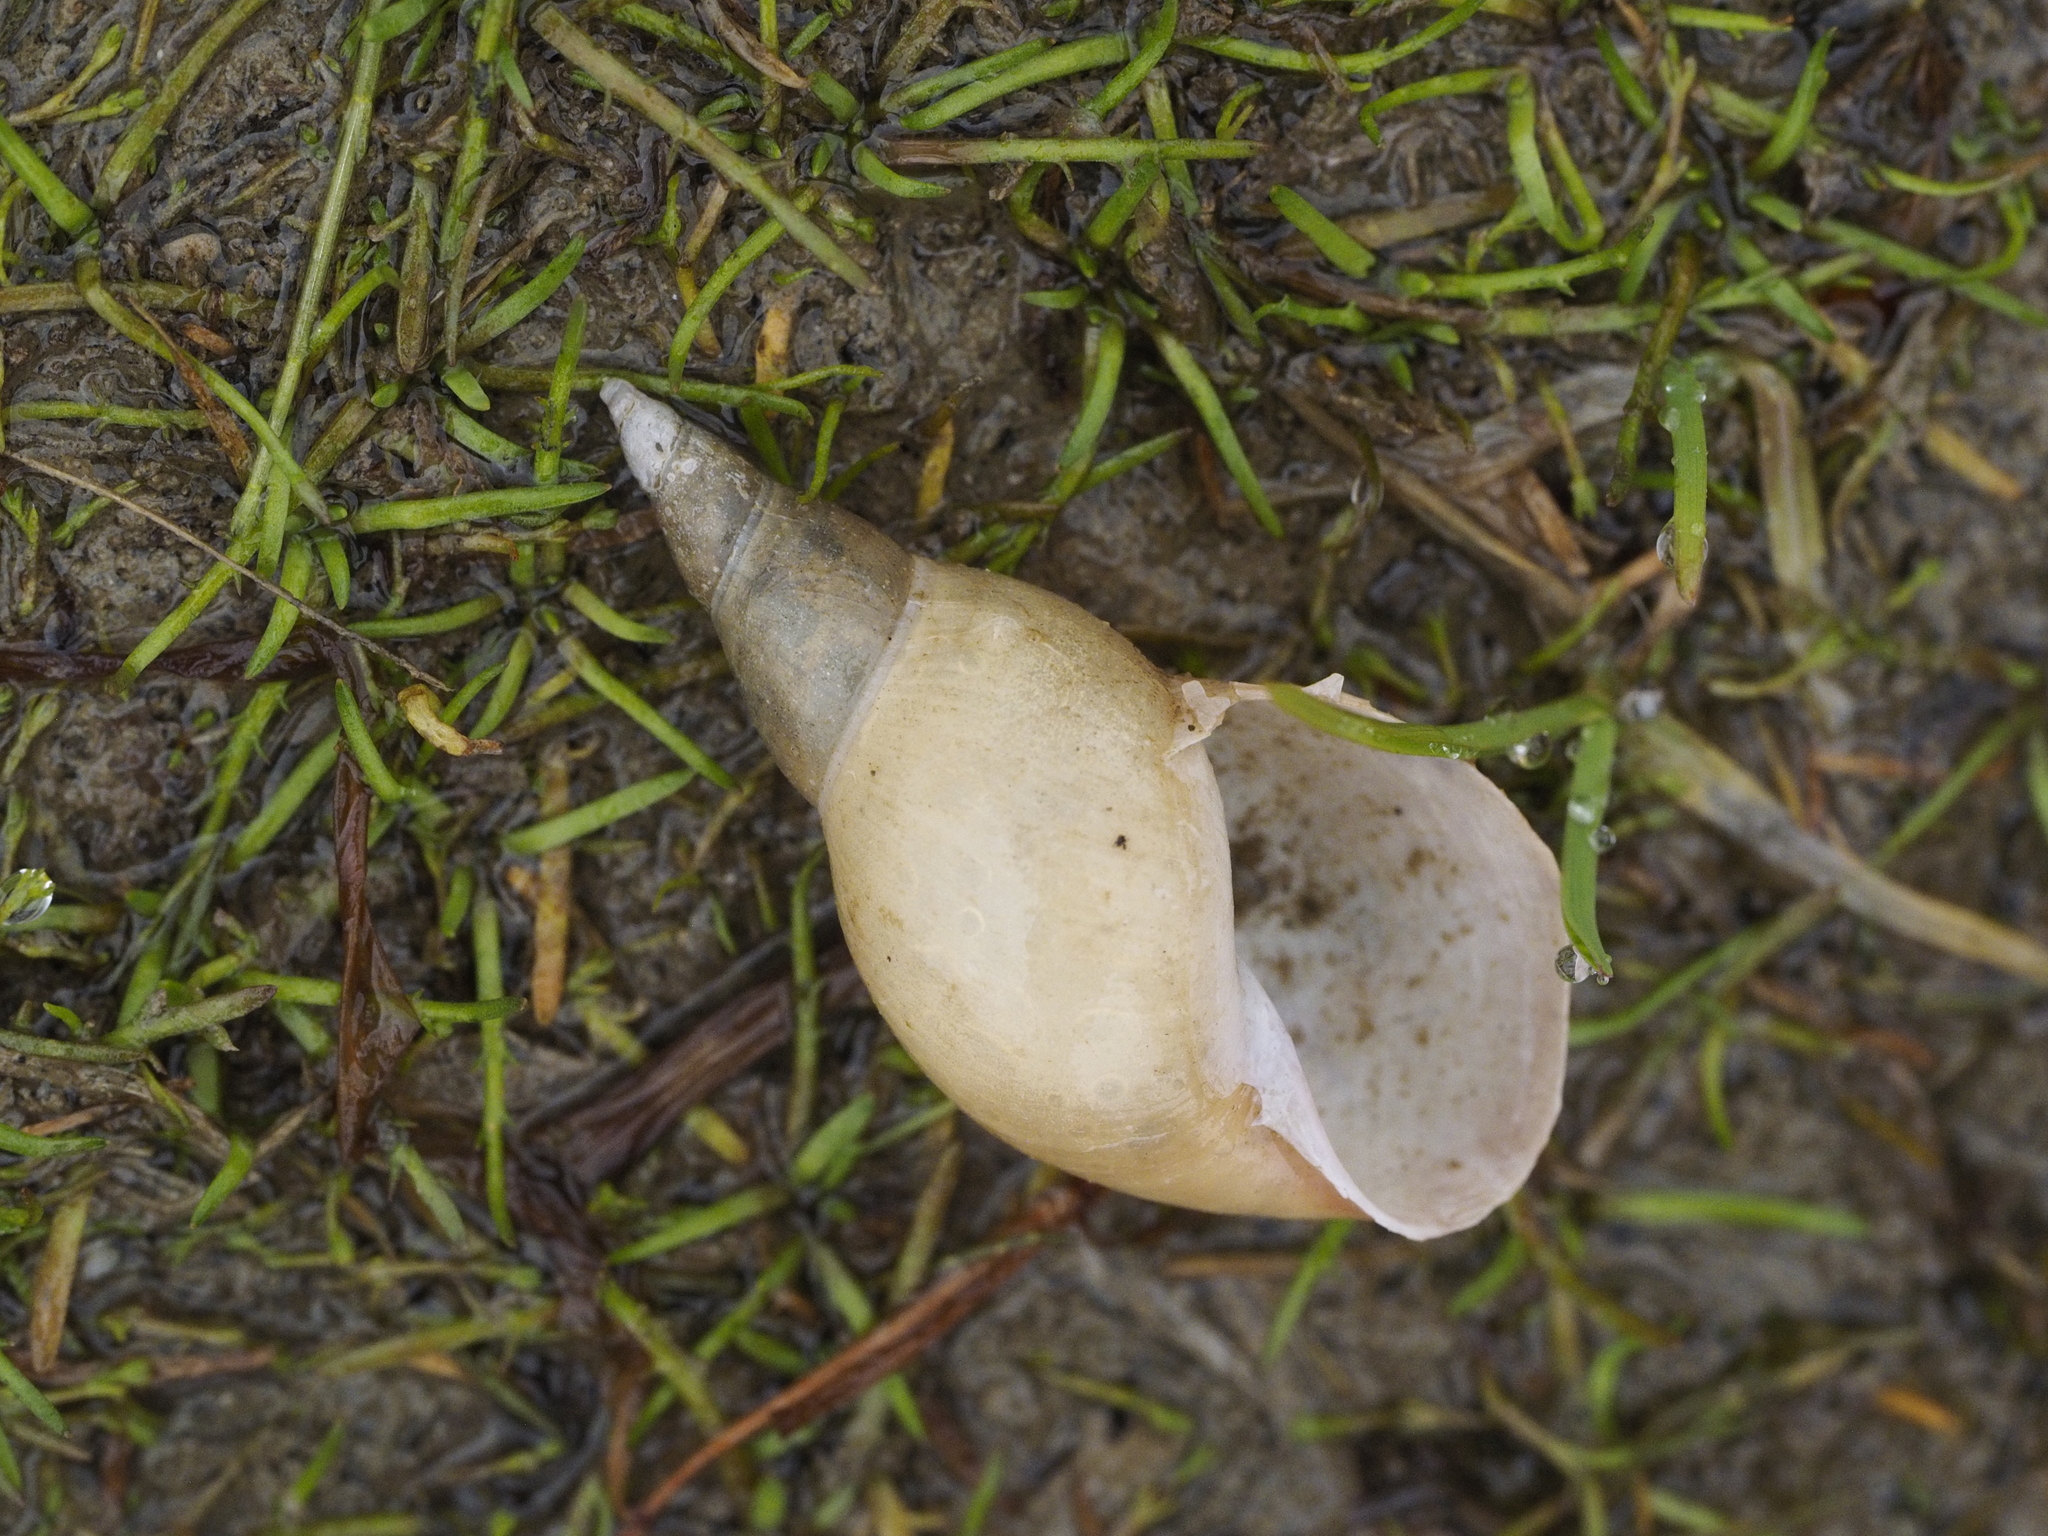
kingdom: Animalia
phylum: Mollusca
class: Gastropoda
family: Lymnaeidae
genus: Lymnaea
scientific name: Lymnaea stagnalis
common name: Great pond snail
